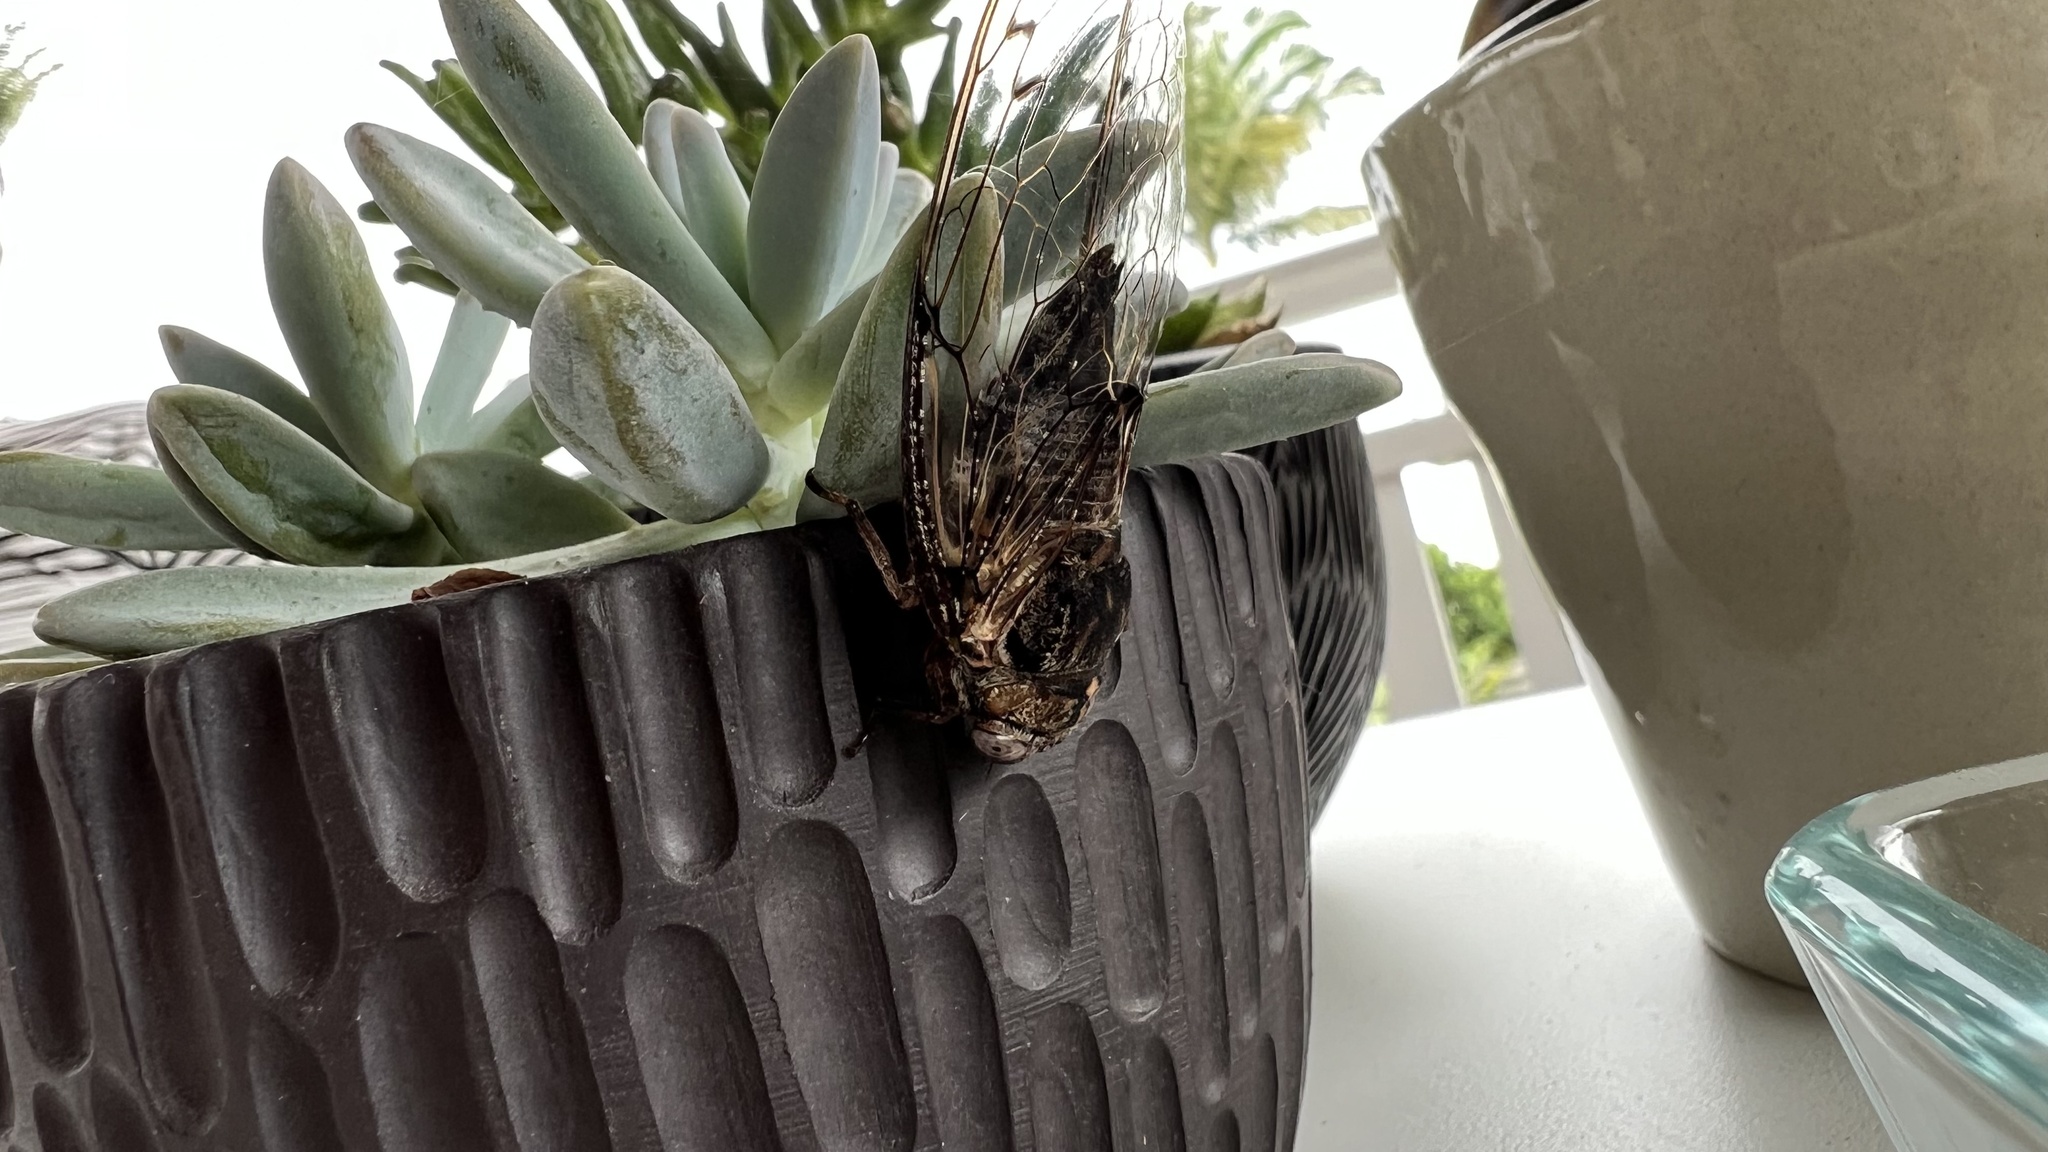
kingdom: Animalia
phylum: Arthropoda
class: Insecta
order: Hemiptera
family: Cicadidae
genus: Aleeta
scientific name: Aleeta curvicosta
